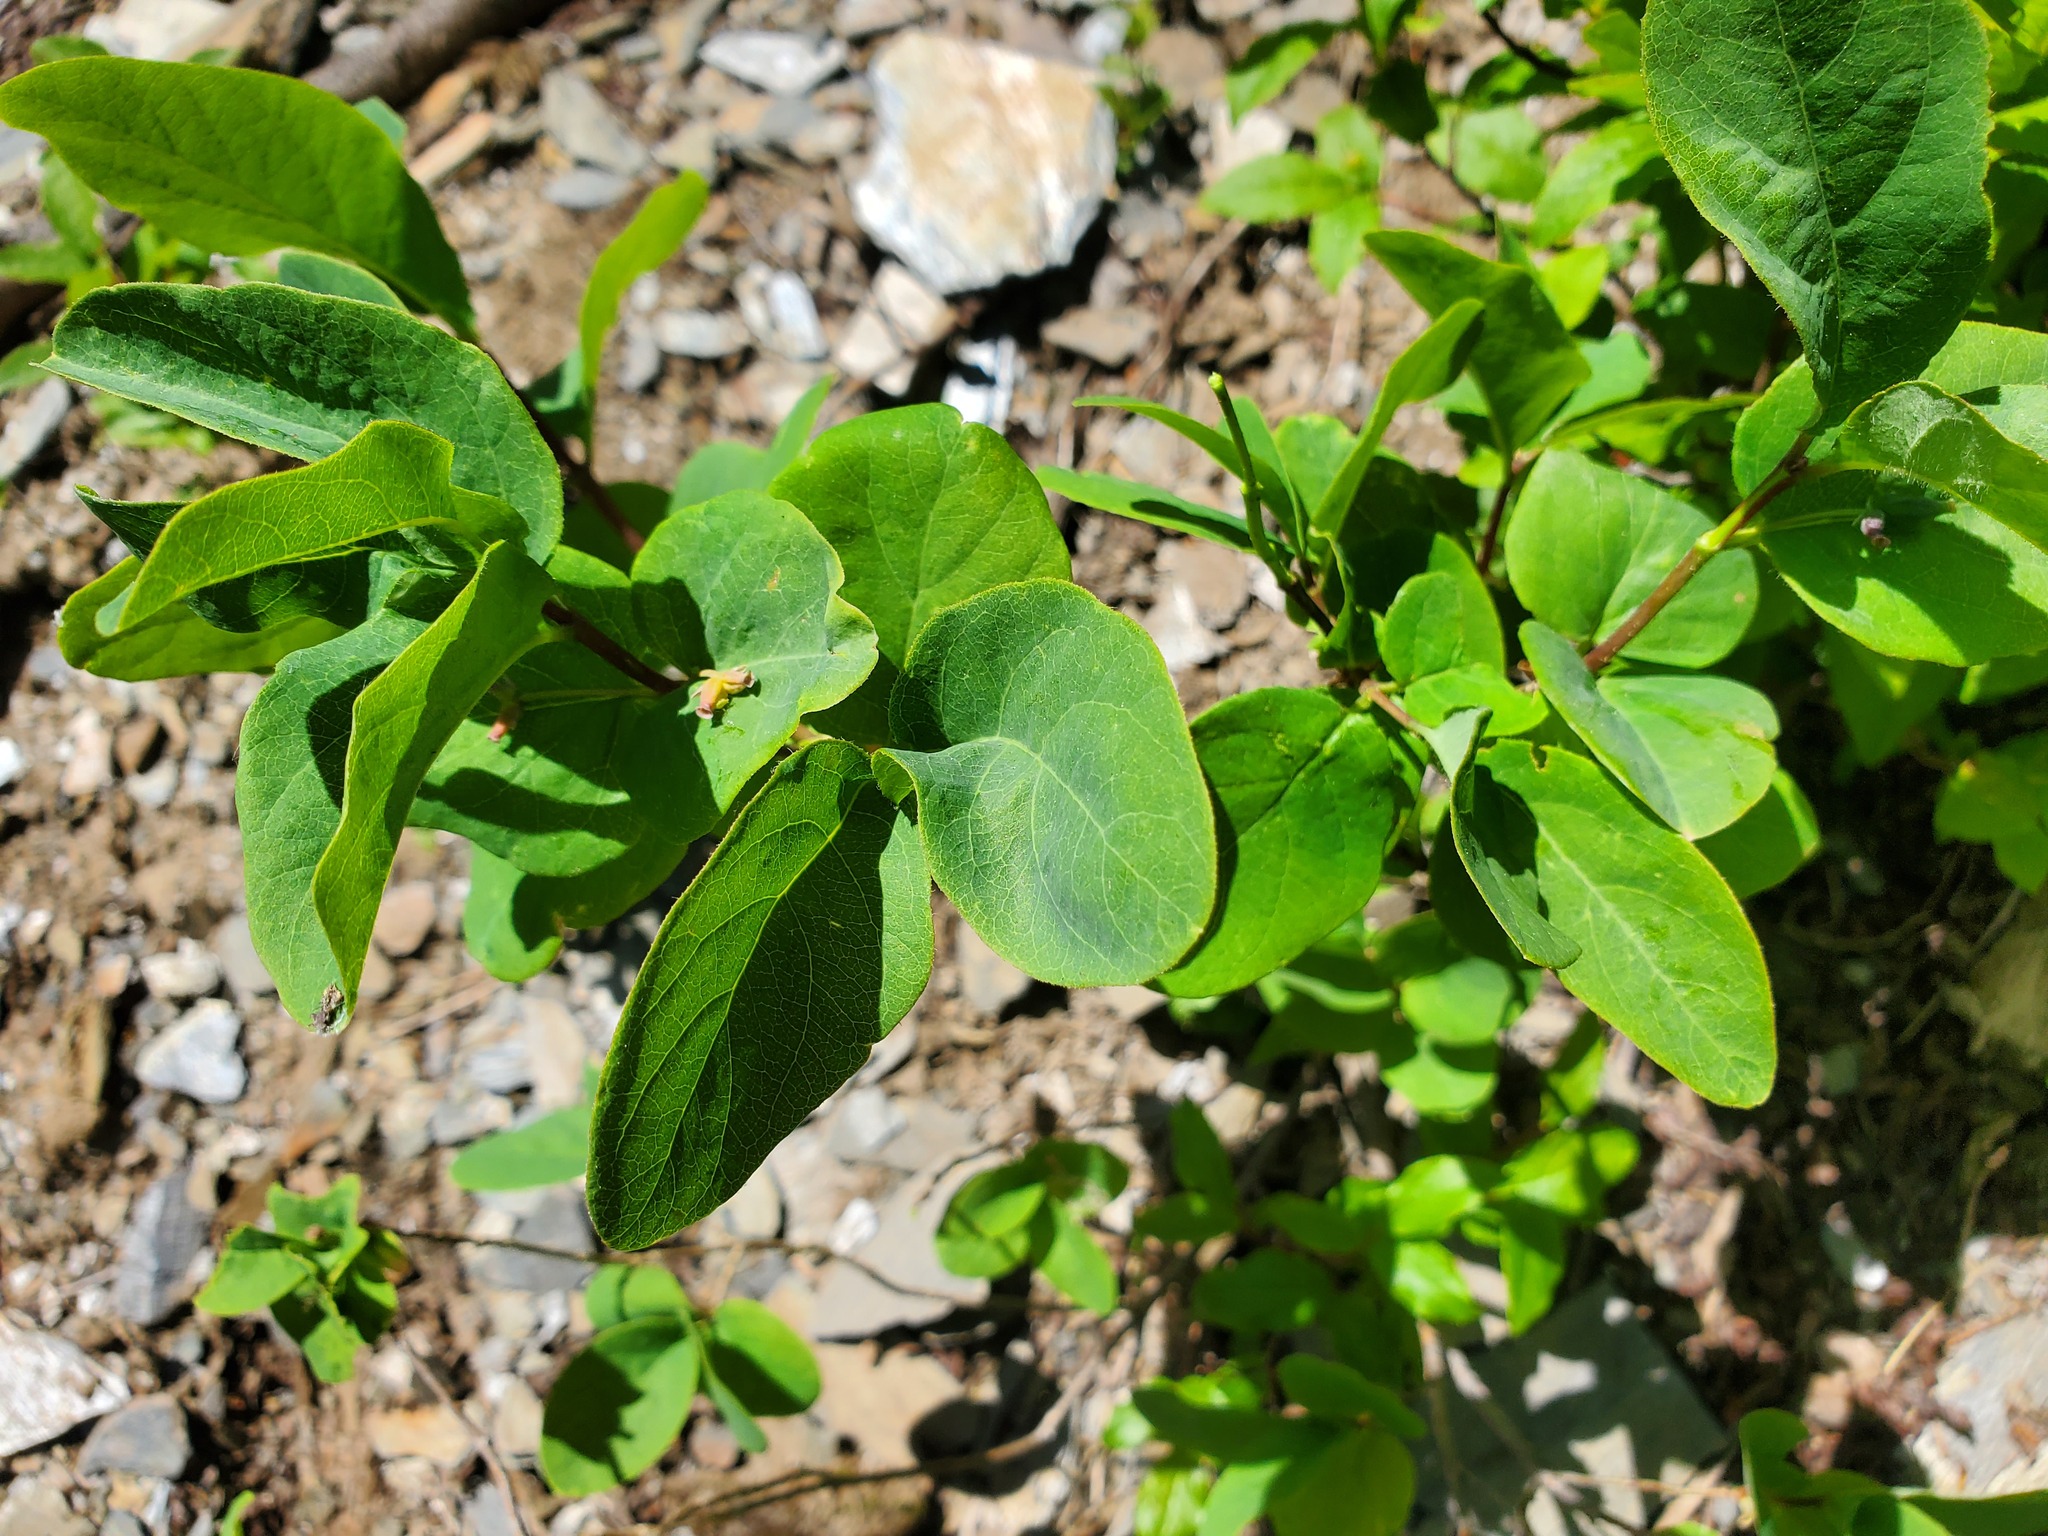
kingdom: Plantae
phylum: Tracheophyta
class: Magnoliopsida
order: Dipsacales
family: Caprifoliaceae
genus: Lonicera
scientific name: Lonicera utahensis
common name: Utah honeysuckle
